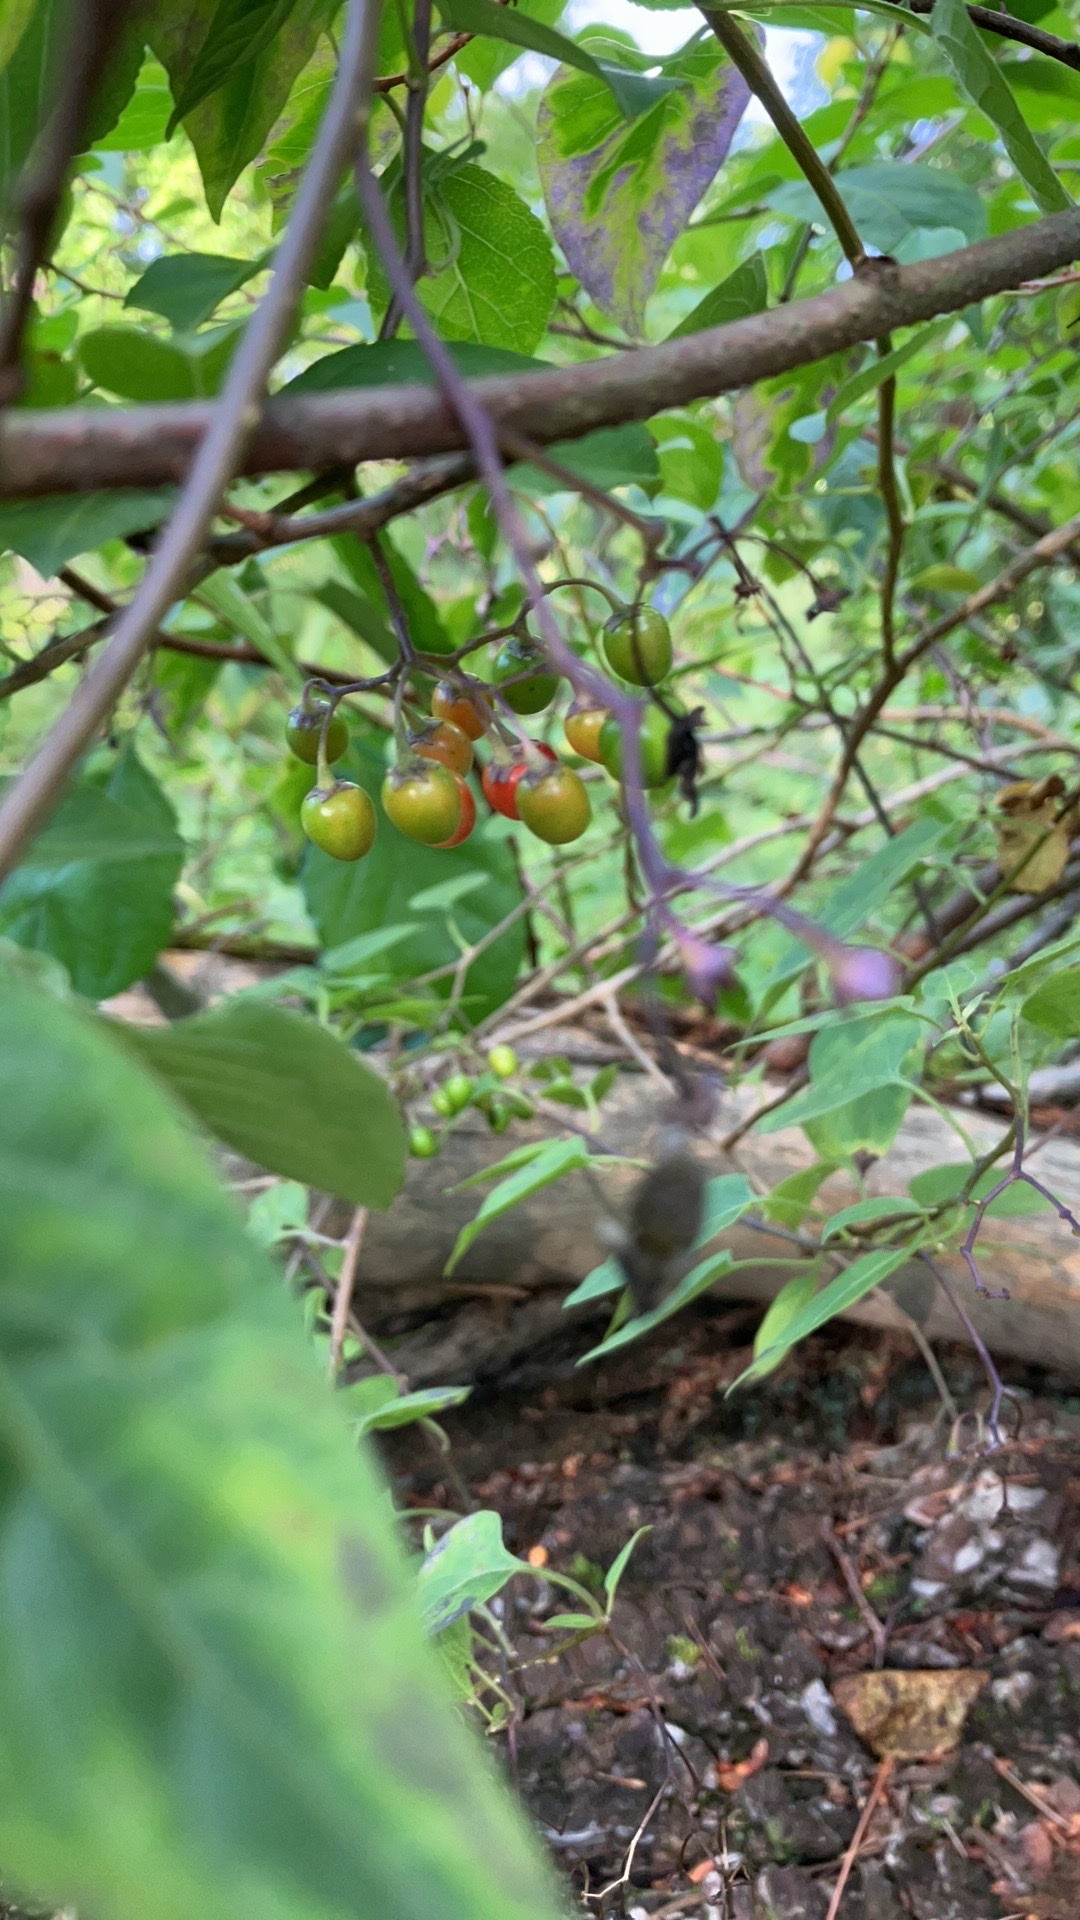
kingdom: Plantae
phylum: Tracheophyta
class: Magnoliopsida
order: Solanales
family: Solanaceae
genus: Solanum
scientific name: Solanum dulcamara
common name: Climbing nightshade
